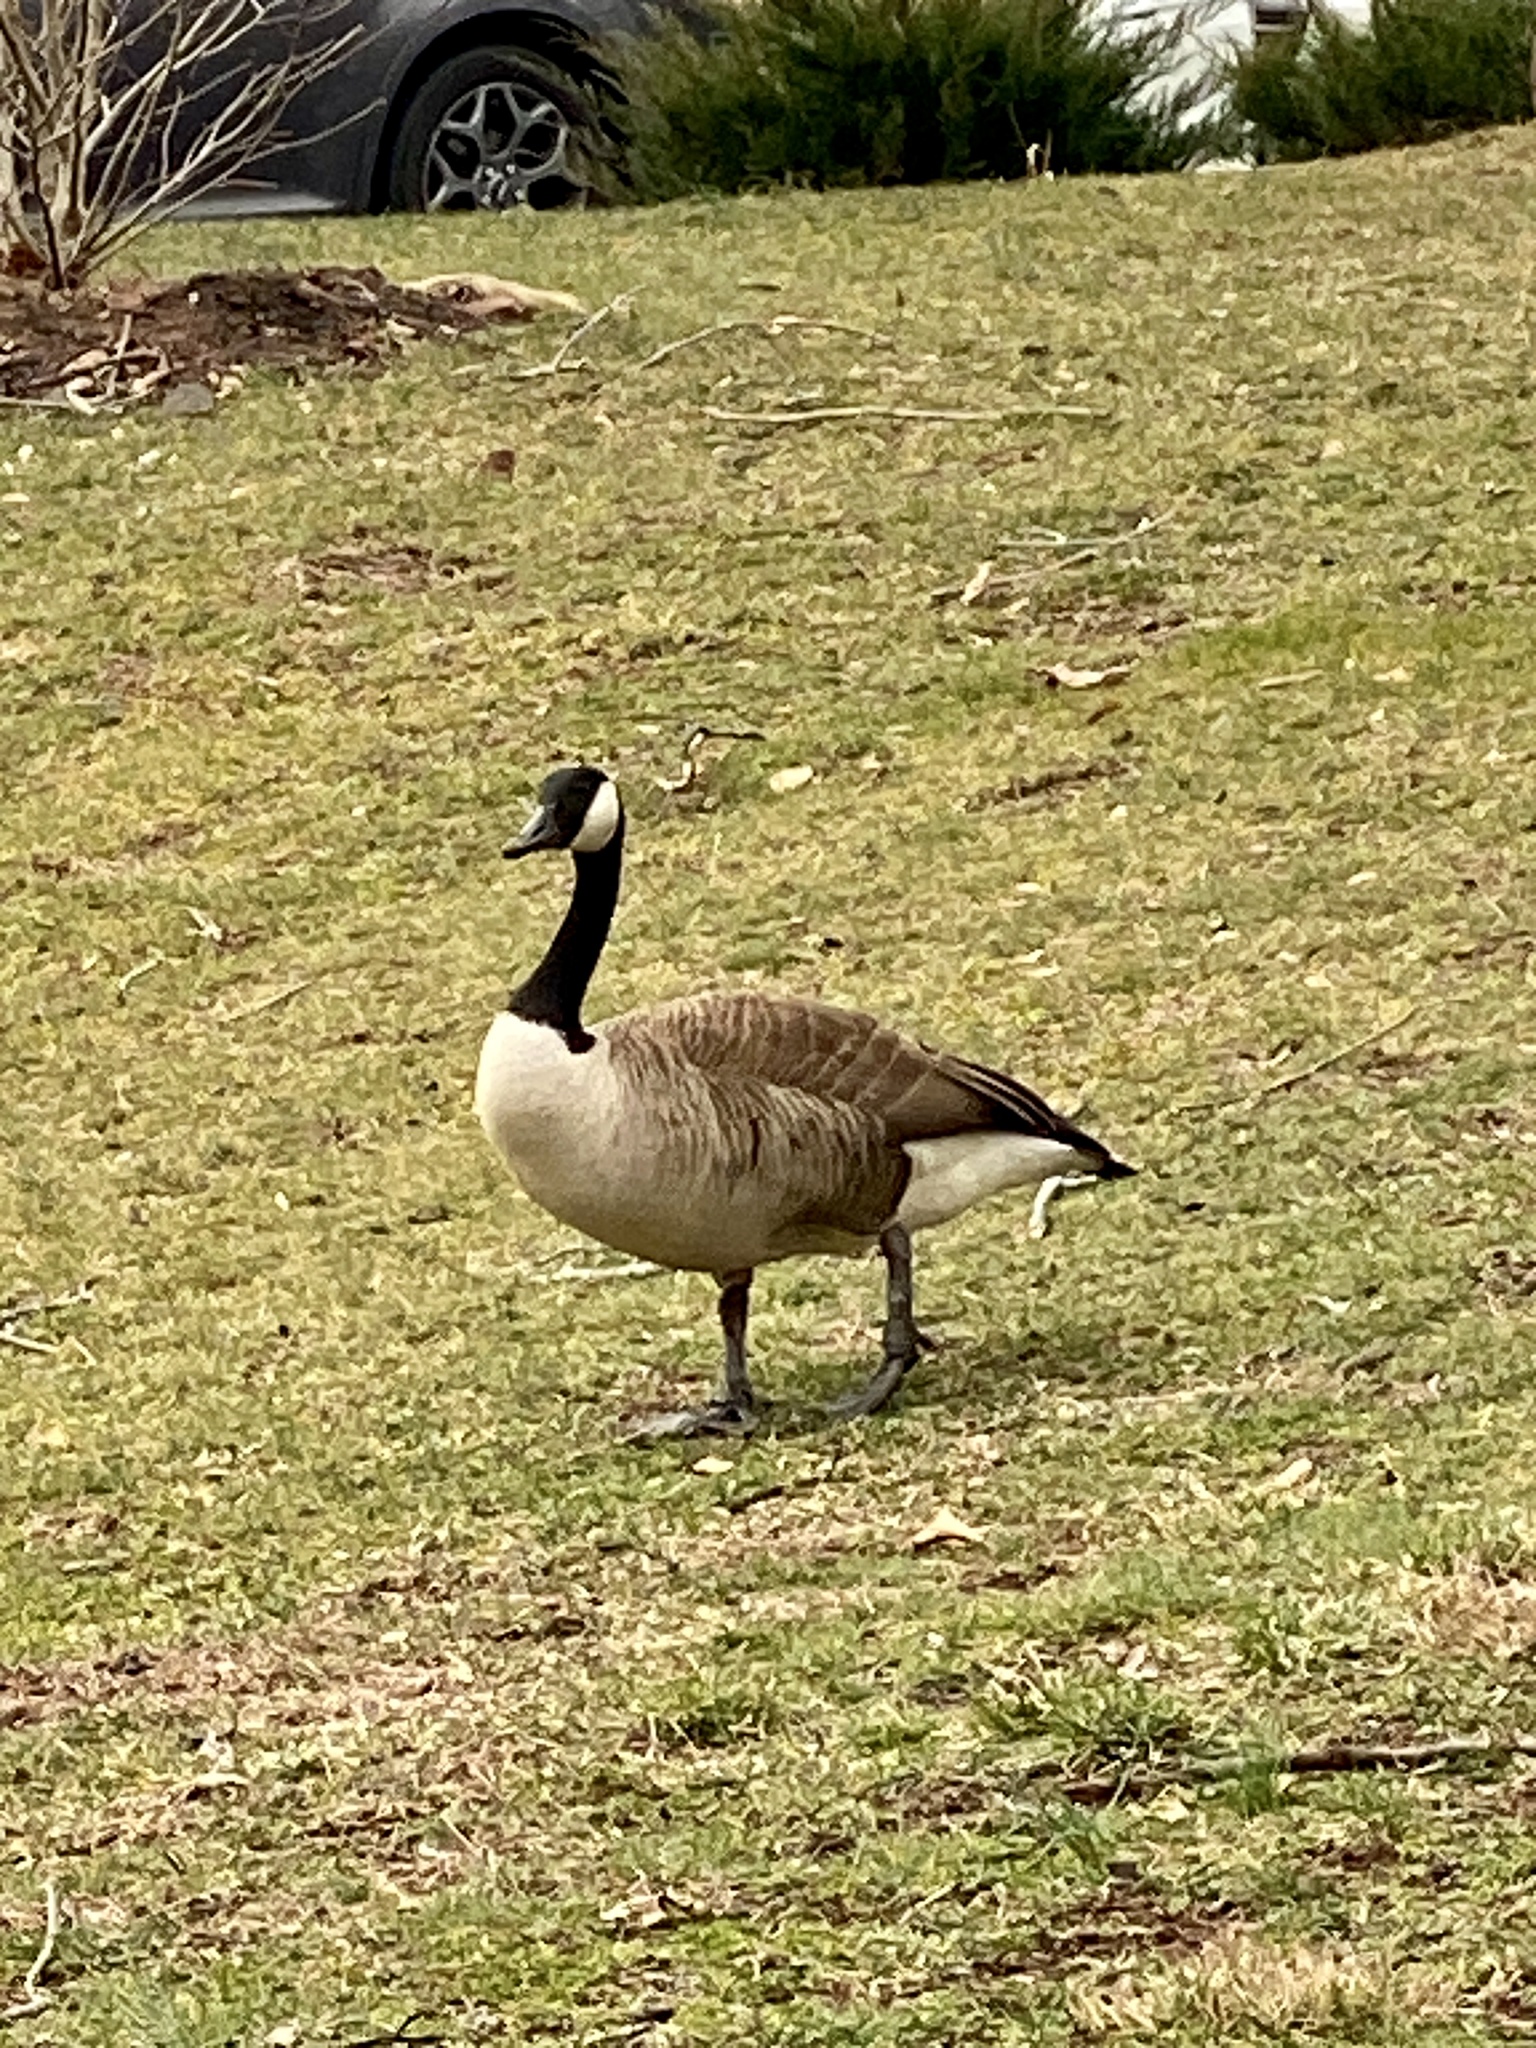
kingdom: Animalia
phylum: Chordata
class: Aves
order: Anseriformes
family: Anatidae
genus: Branta
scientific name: Branta canadensis
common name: Canada goose
